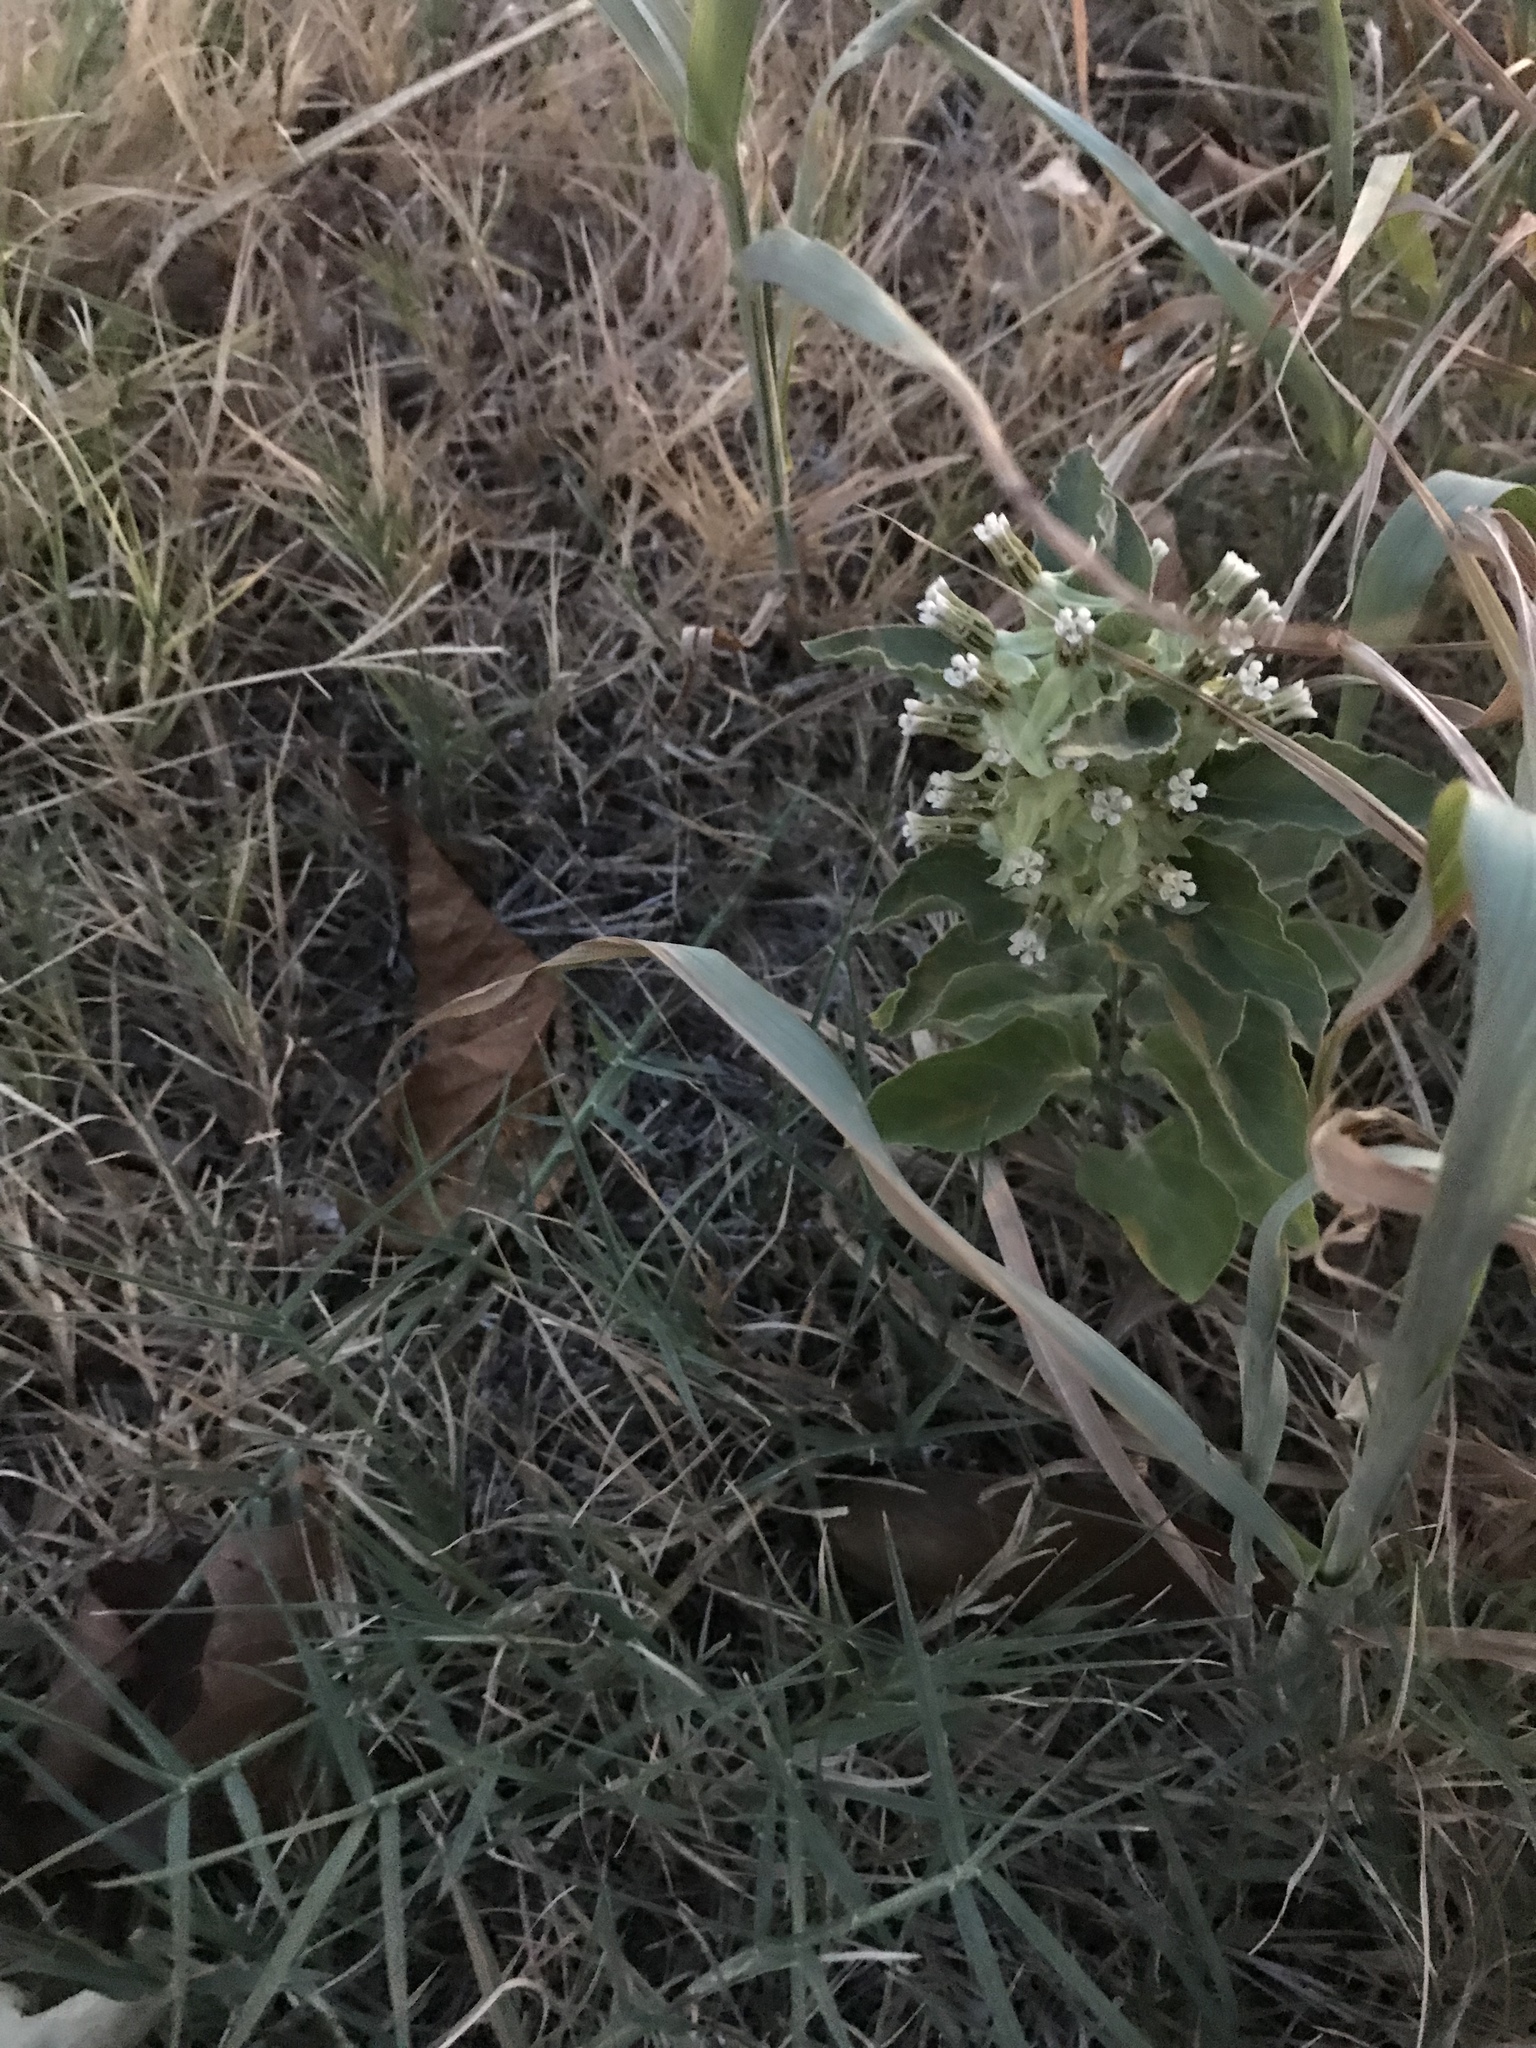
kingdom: Plantae
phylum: Tracheophyta
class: Magnoliopsida
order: Gentianales
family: Apocynaceae
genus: Asclepias
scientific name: Asclepias oenotheroides
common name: Zizotes milkweed
